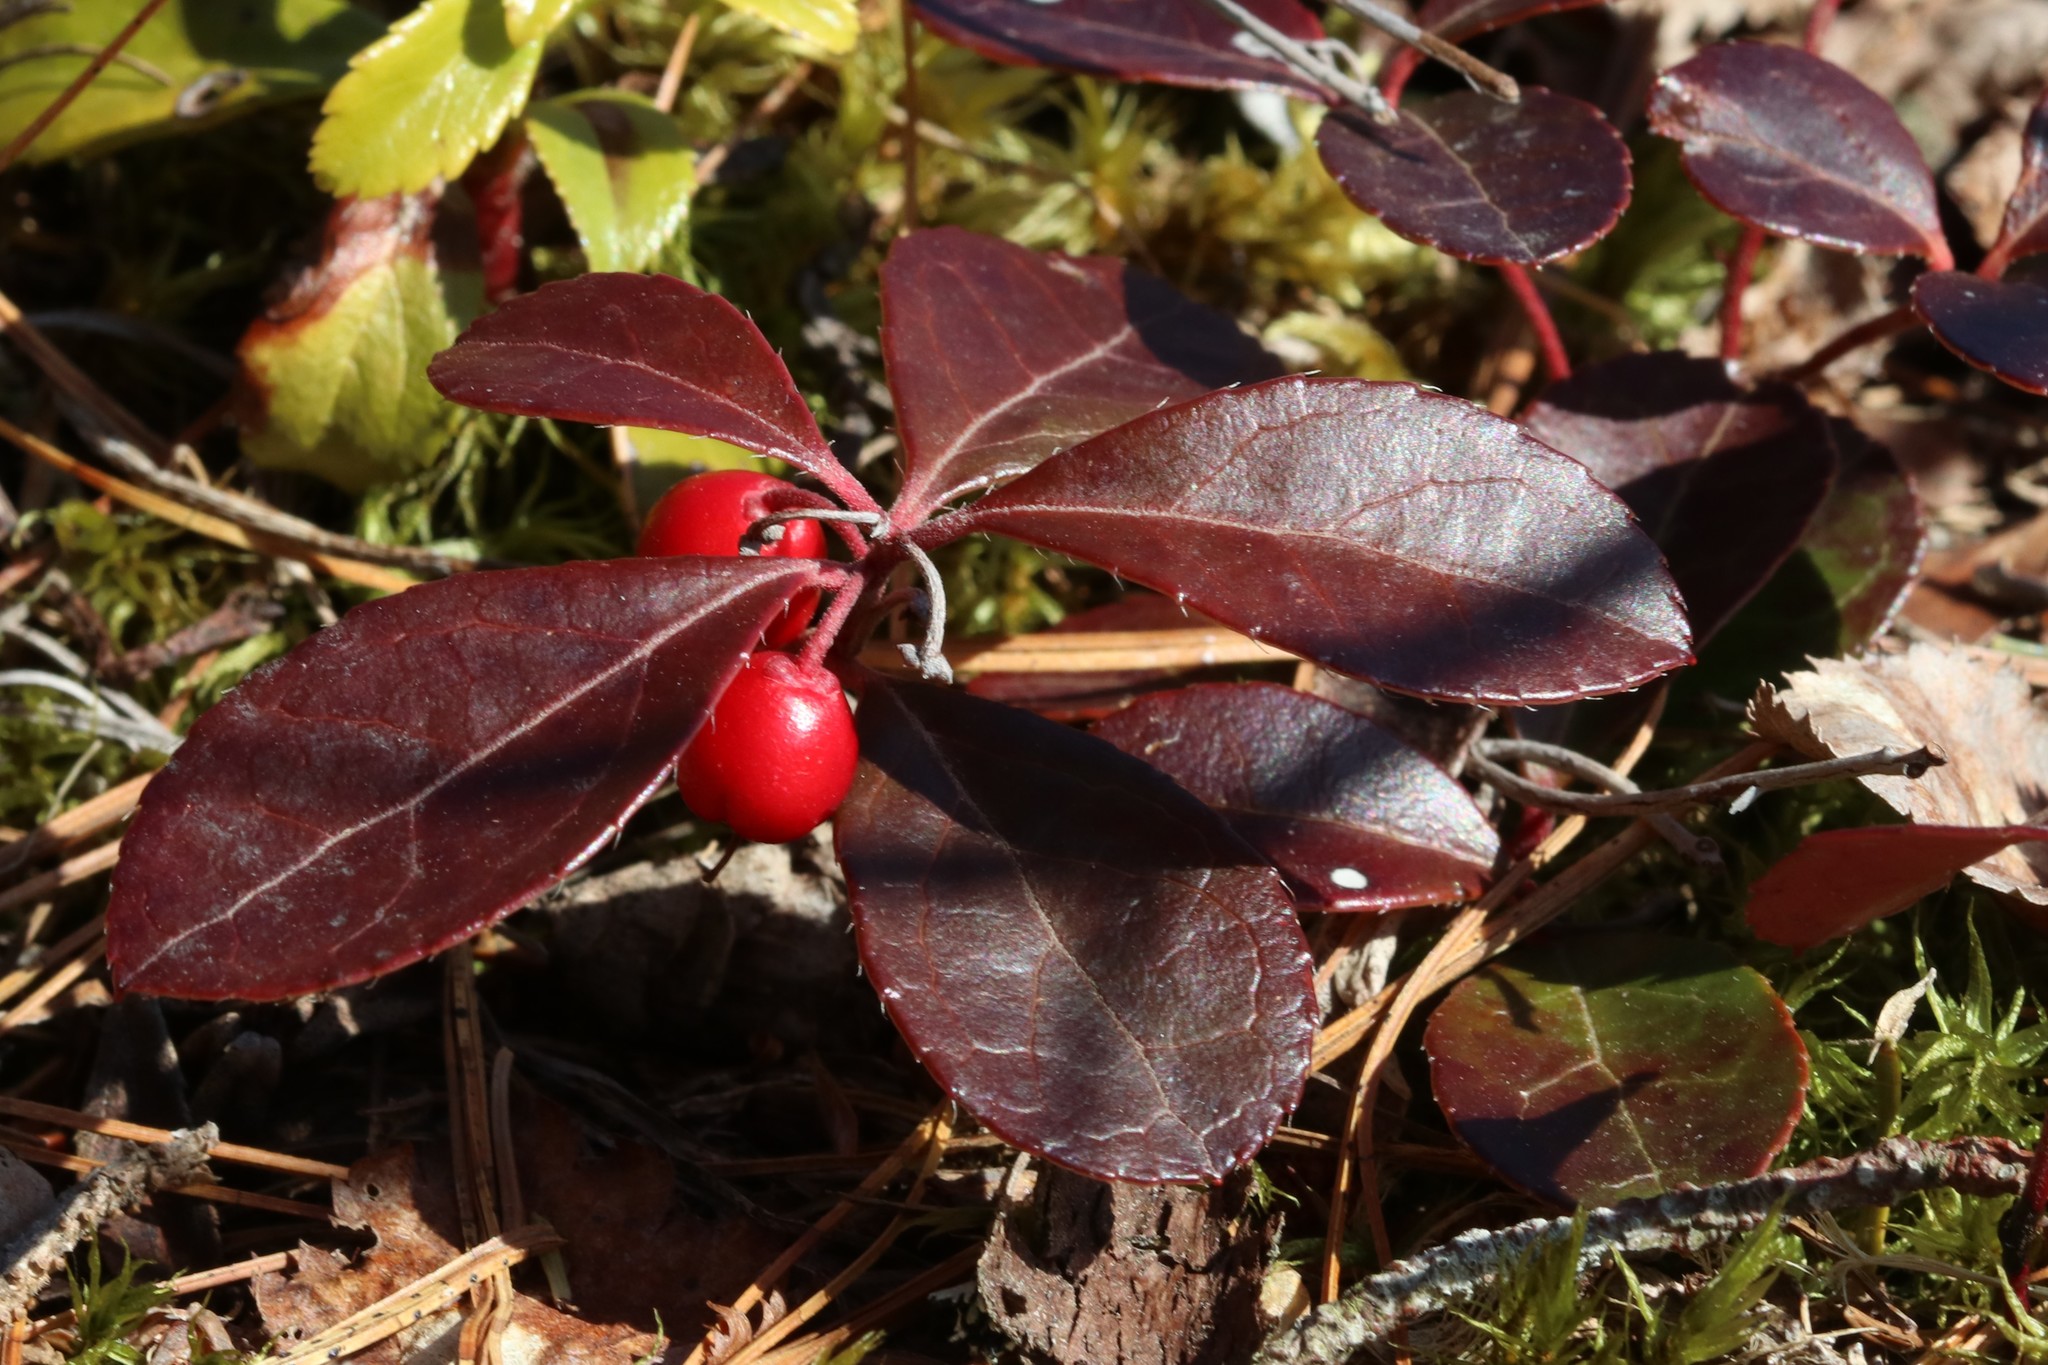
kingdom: Plantae
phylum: Tracheophyta
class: Magnoliopsida
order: Ericales
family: Ericaceae
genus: Gaultheria
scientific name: Gaultheria procumbens
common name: Checkerberry
